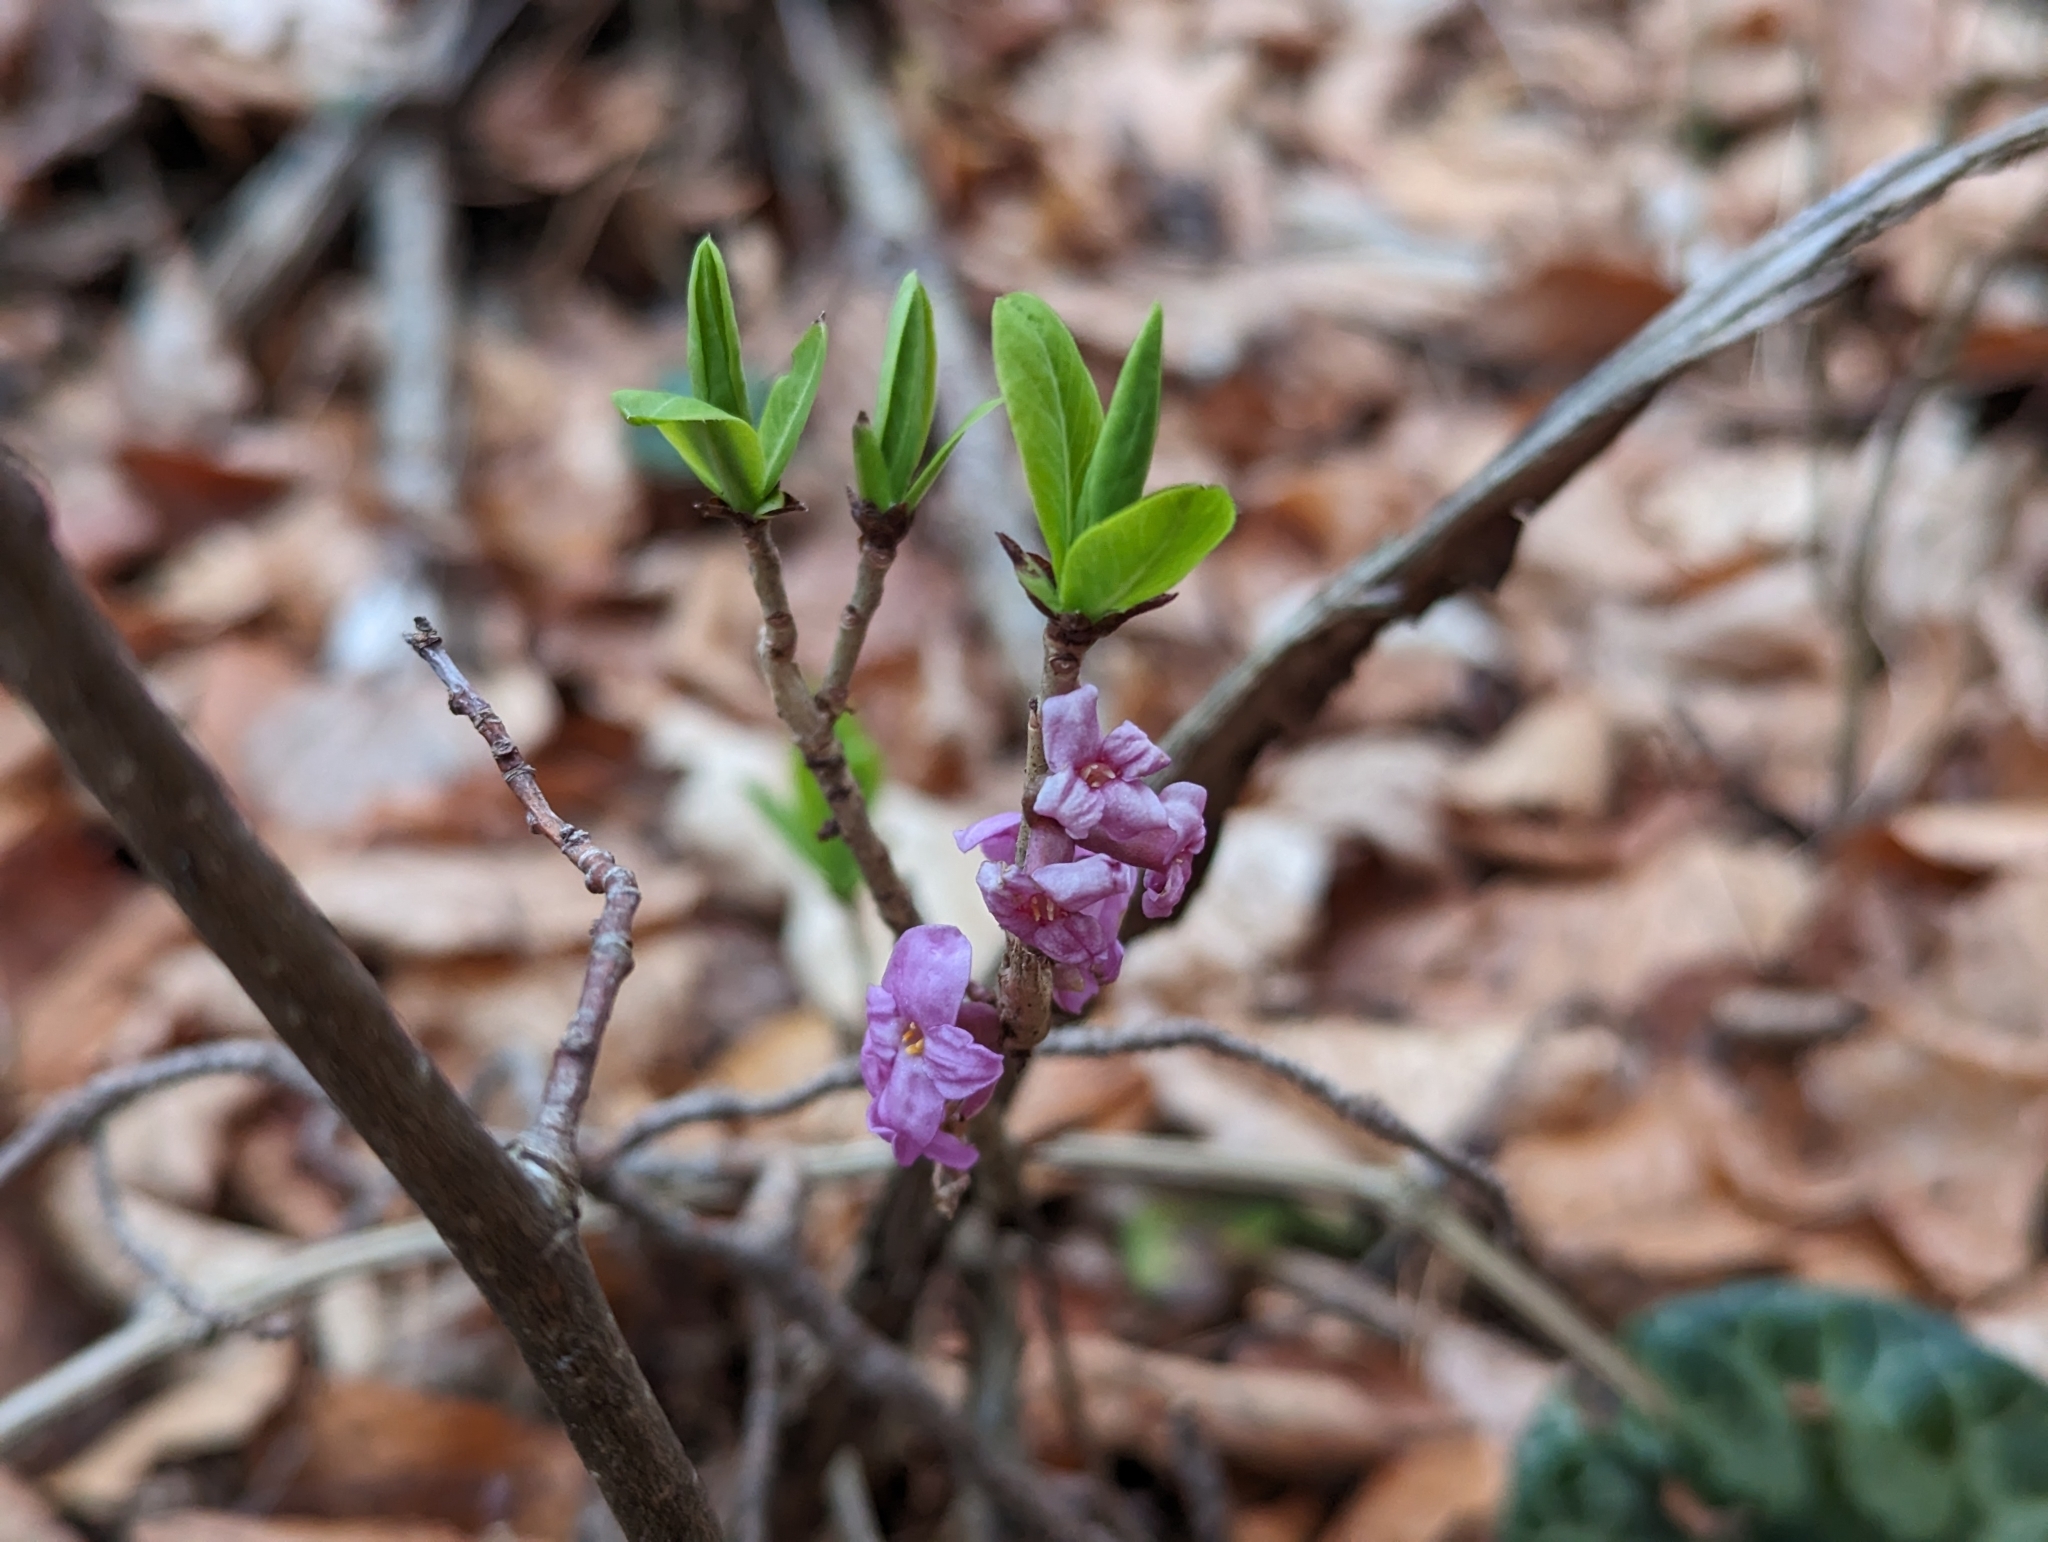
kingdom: Plantae
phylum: Tracheophyta
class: Magnoliopsida
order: Malvales
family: Thymelaeaceae
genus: Daphne
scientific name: Daphne mezereum
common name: Mezereon
